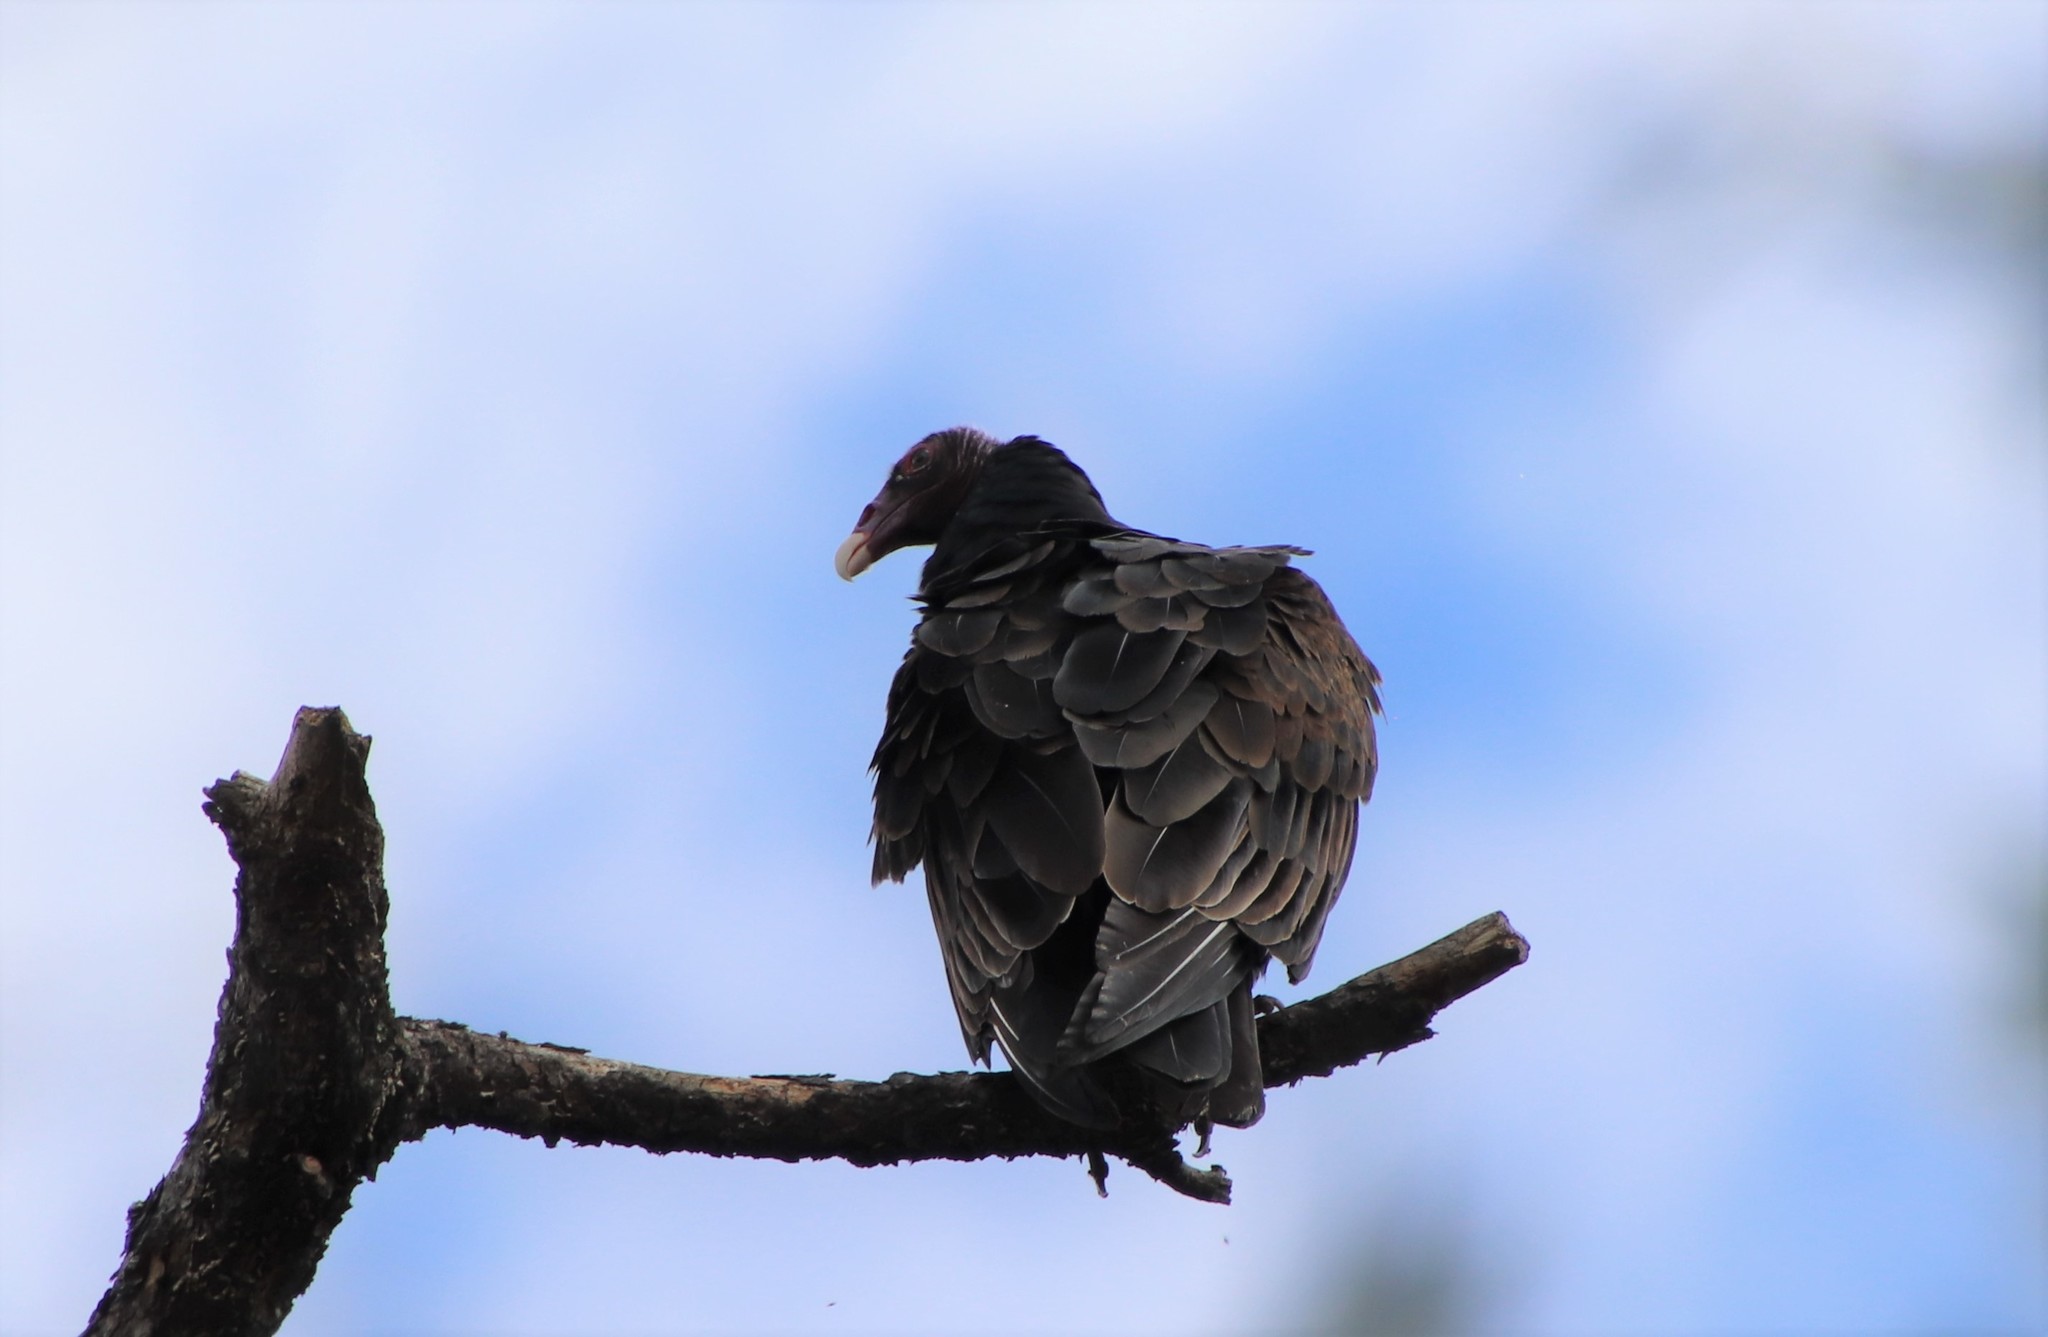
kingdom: Animalia
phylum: Chordata
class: Aves
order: Accipitriformes
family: Cathartidae
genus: Cathartes
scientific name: Cathartes aura
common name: Turkey vulture
